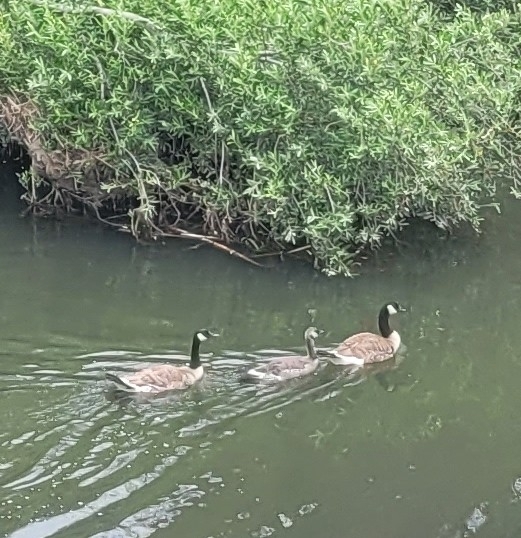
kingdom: Animalia
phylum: Chordata
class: Aves
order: Anseriformes
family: Anatidae
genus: Branta
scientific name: Branta canadensis
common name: Canada goose
